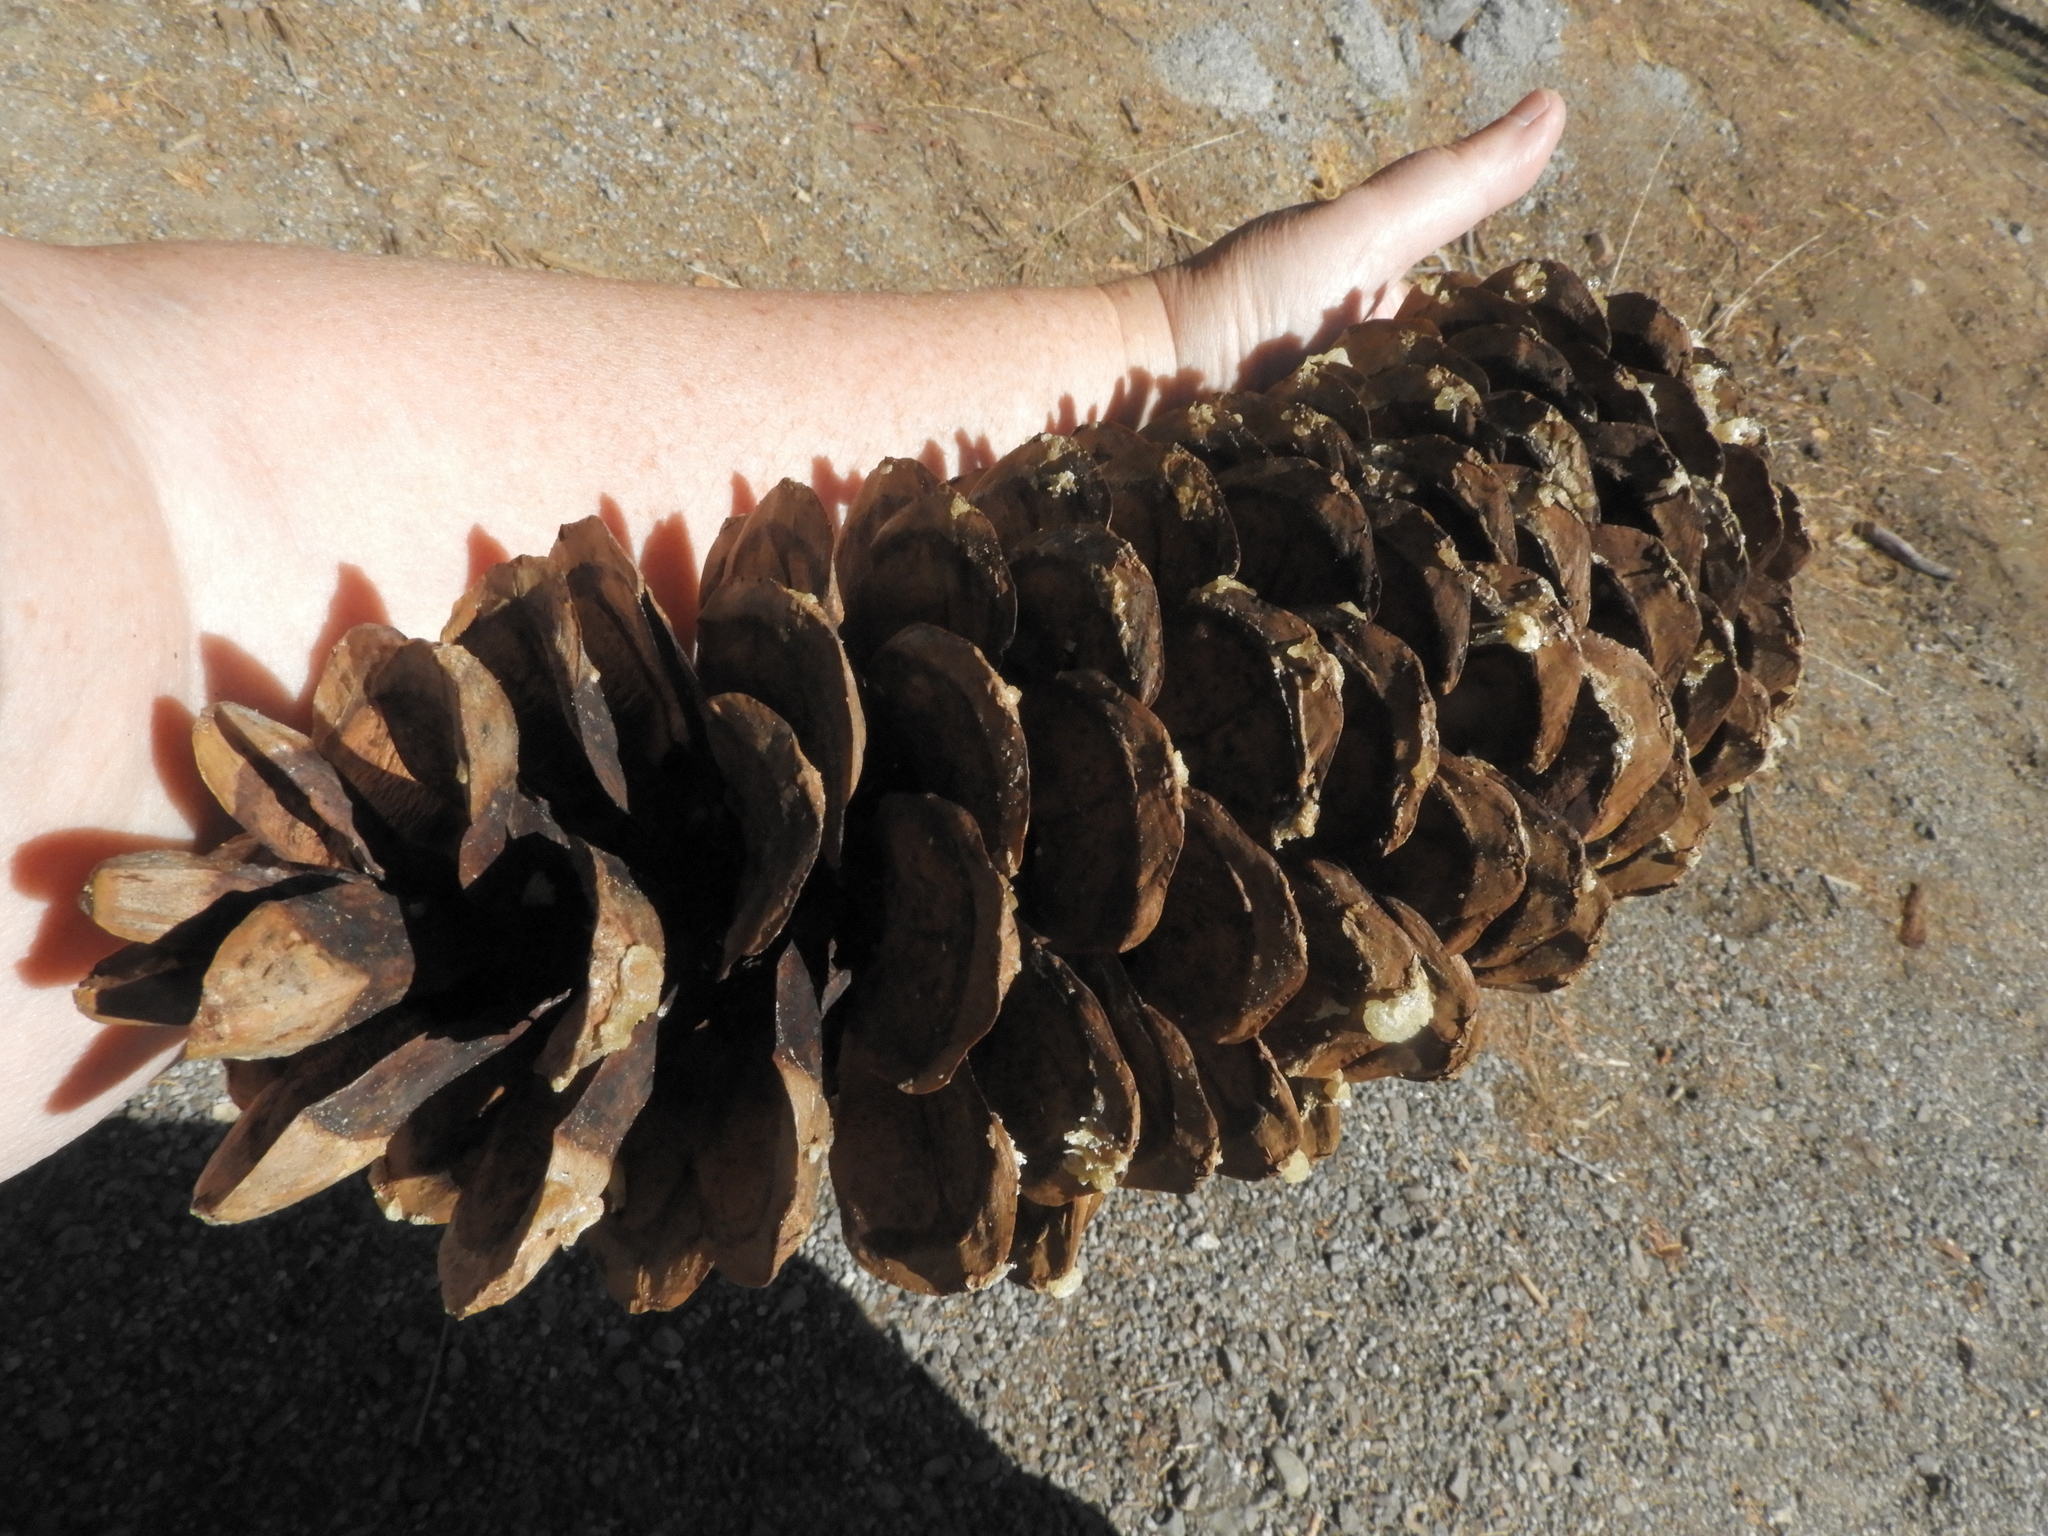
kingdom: Plantae
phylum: Tracheophyta
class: Pinopsida
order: Pinales
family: Pinaceae
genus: Pinus
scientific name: Pinus lambertiana
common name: Sugar pine
